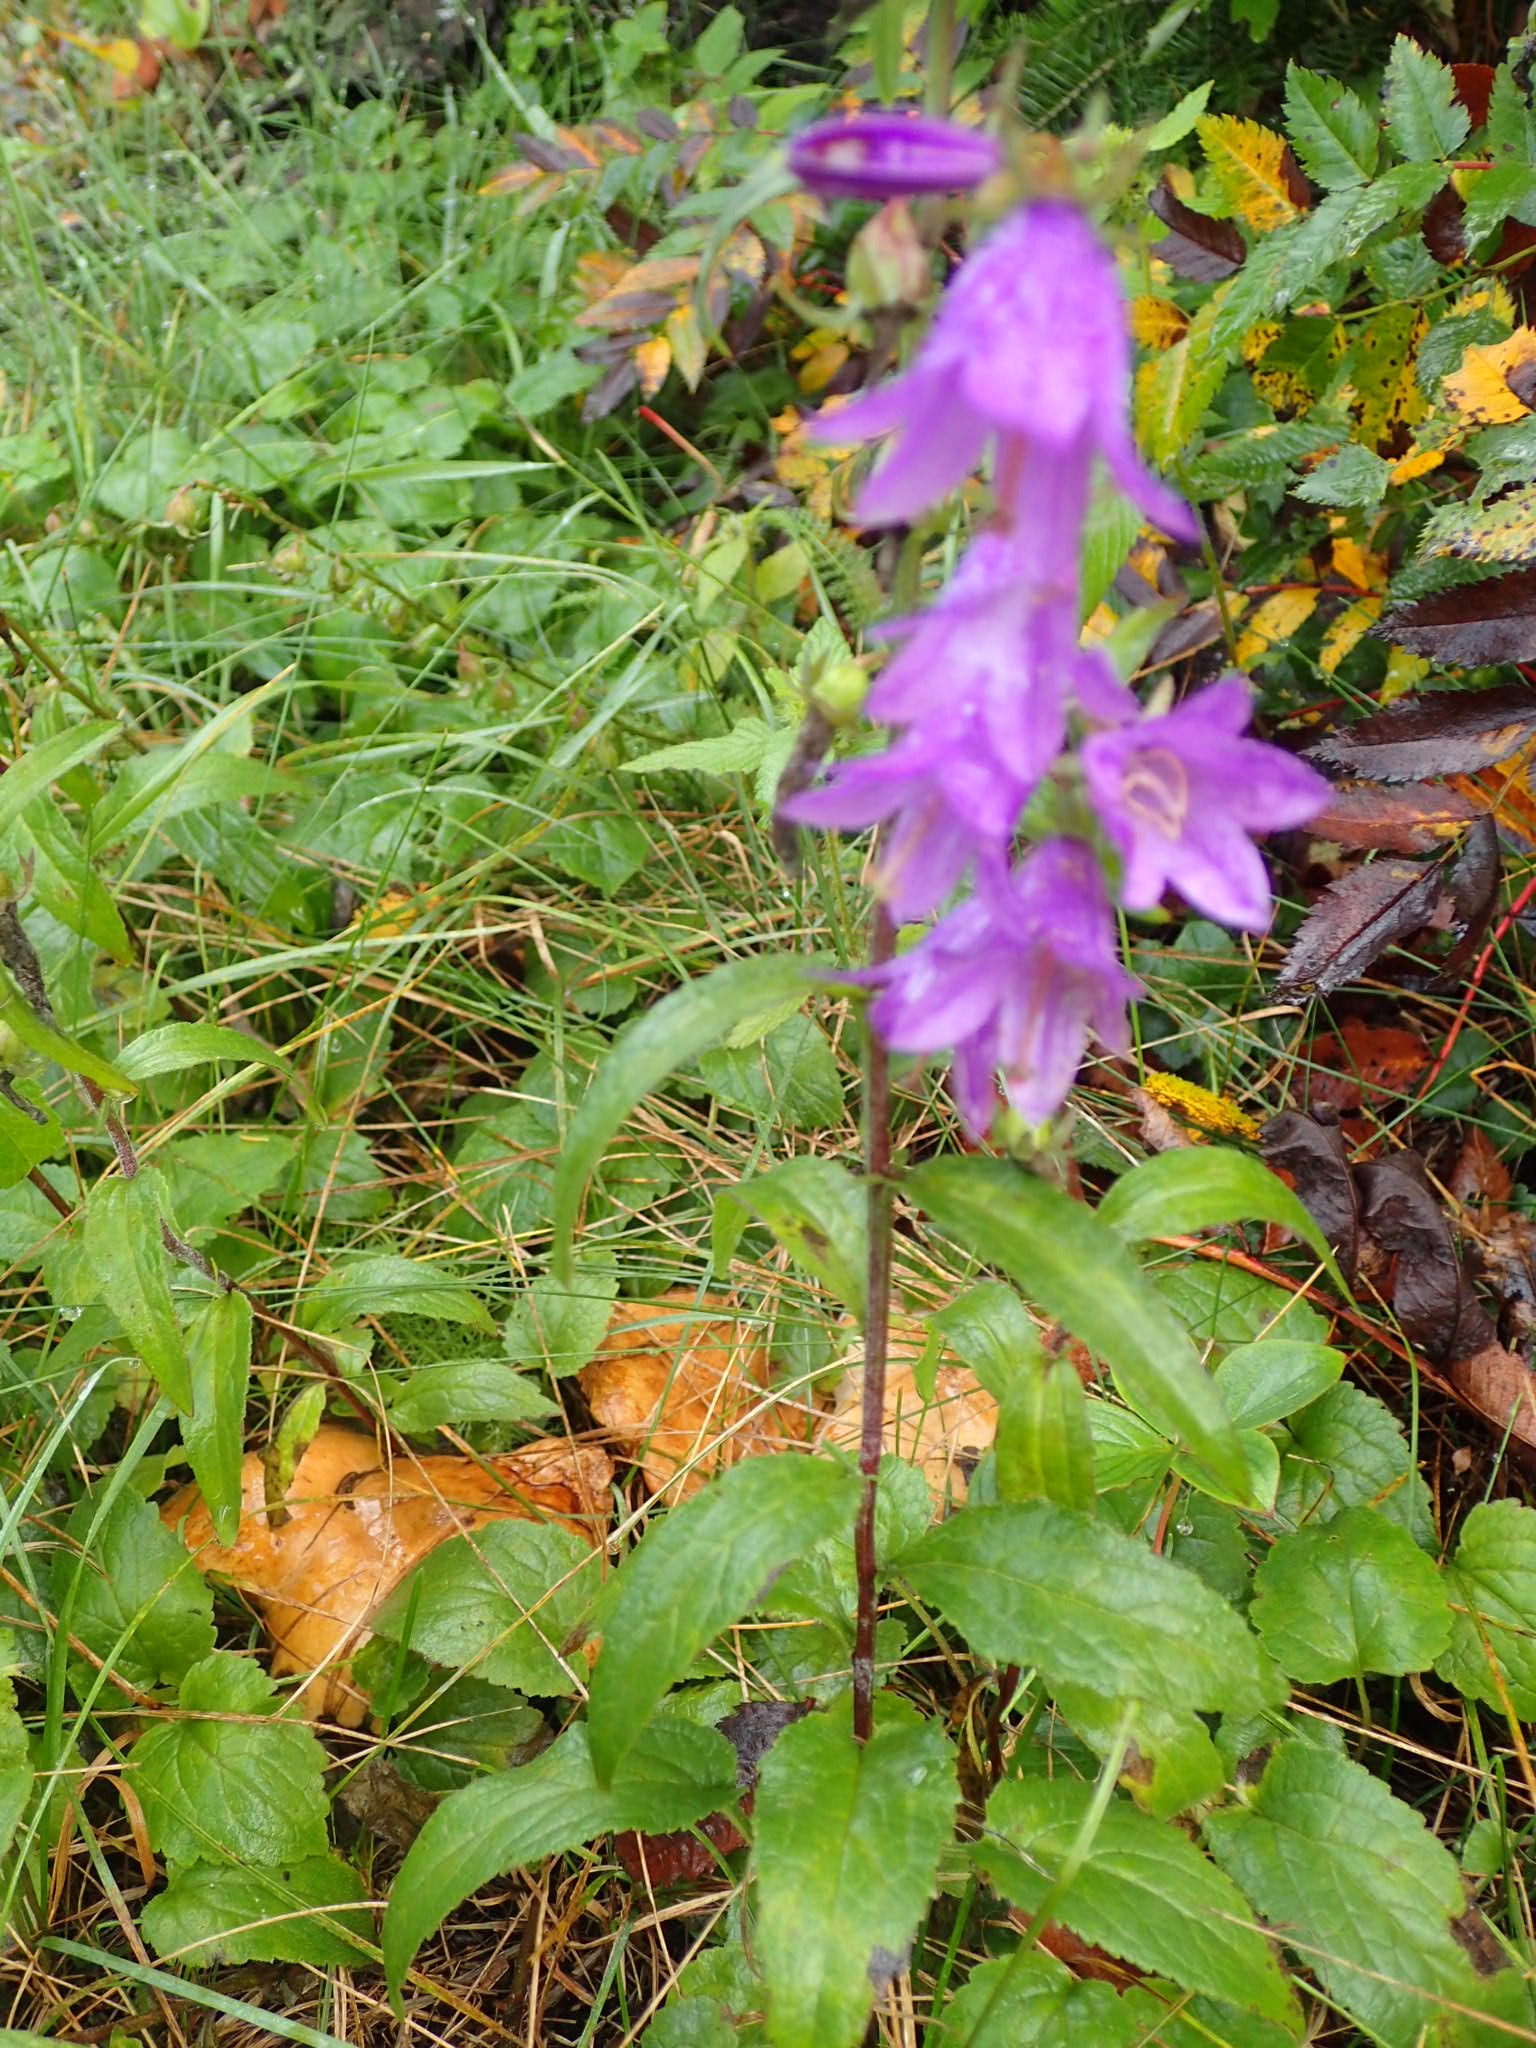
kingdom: Plantae
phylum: Tracheophyta
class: Magnoliopsida
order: Asterales
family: Campanulaceae
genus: Campanula
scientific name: Campanula rapunculoides
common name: Creeping bellflower
